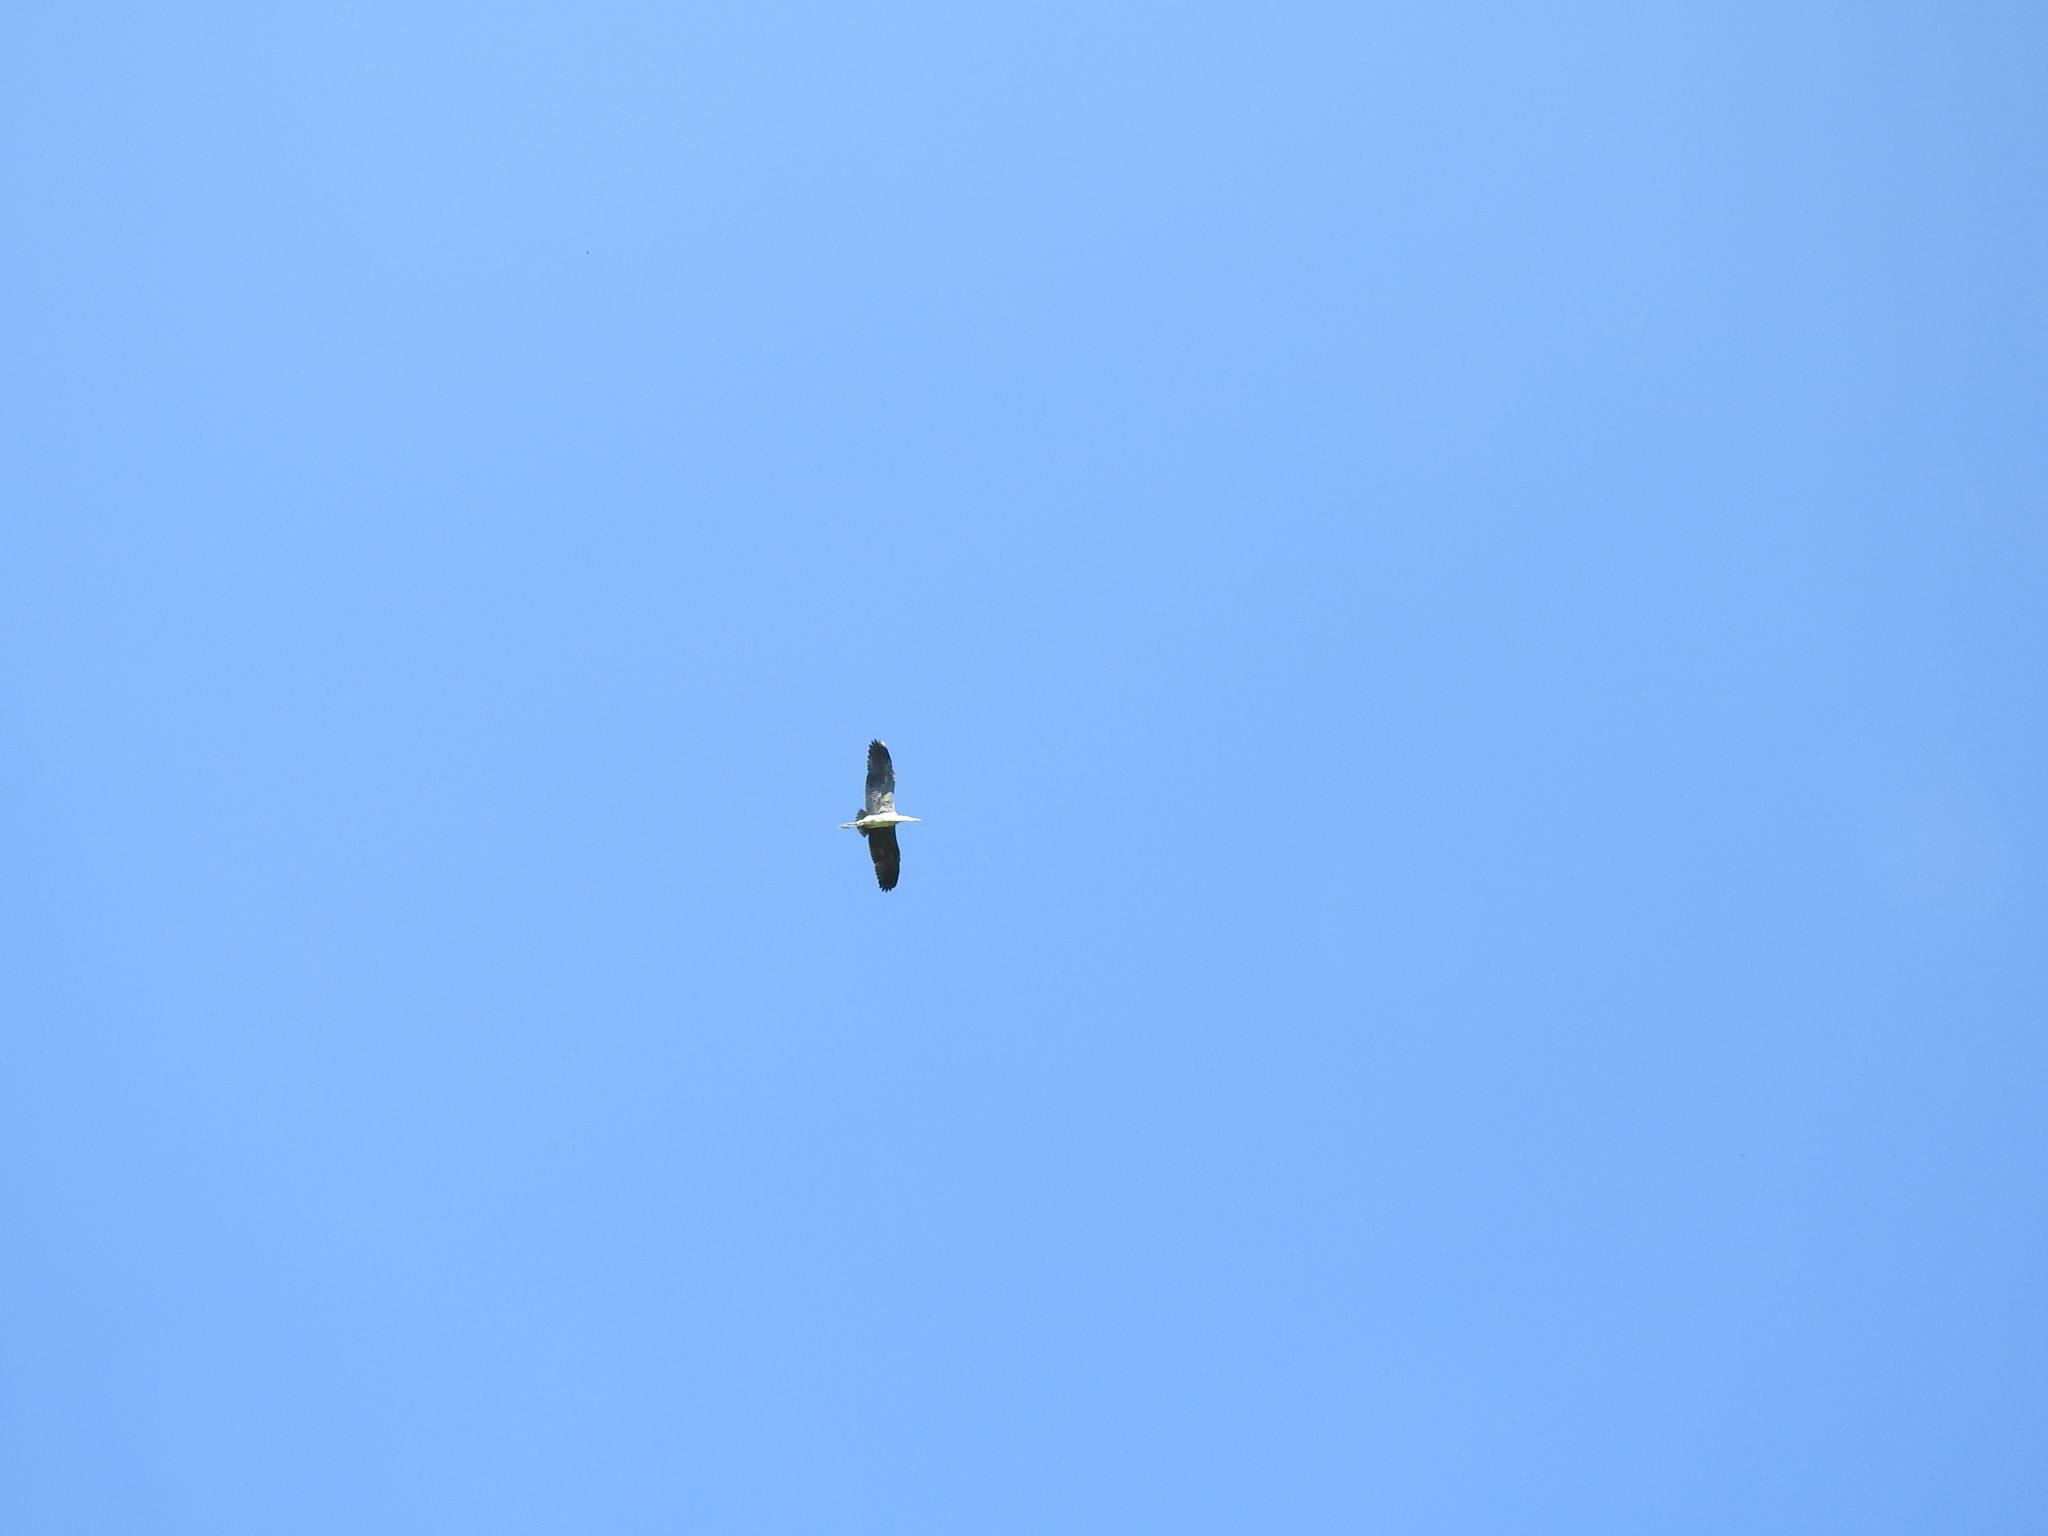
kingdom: Animalia
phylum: Chordata
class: Aves
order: Pelecaniformes
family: Ardeidae
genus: Ardea
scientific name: Ardea cinerea
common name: Grey heron
